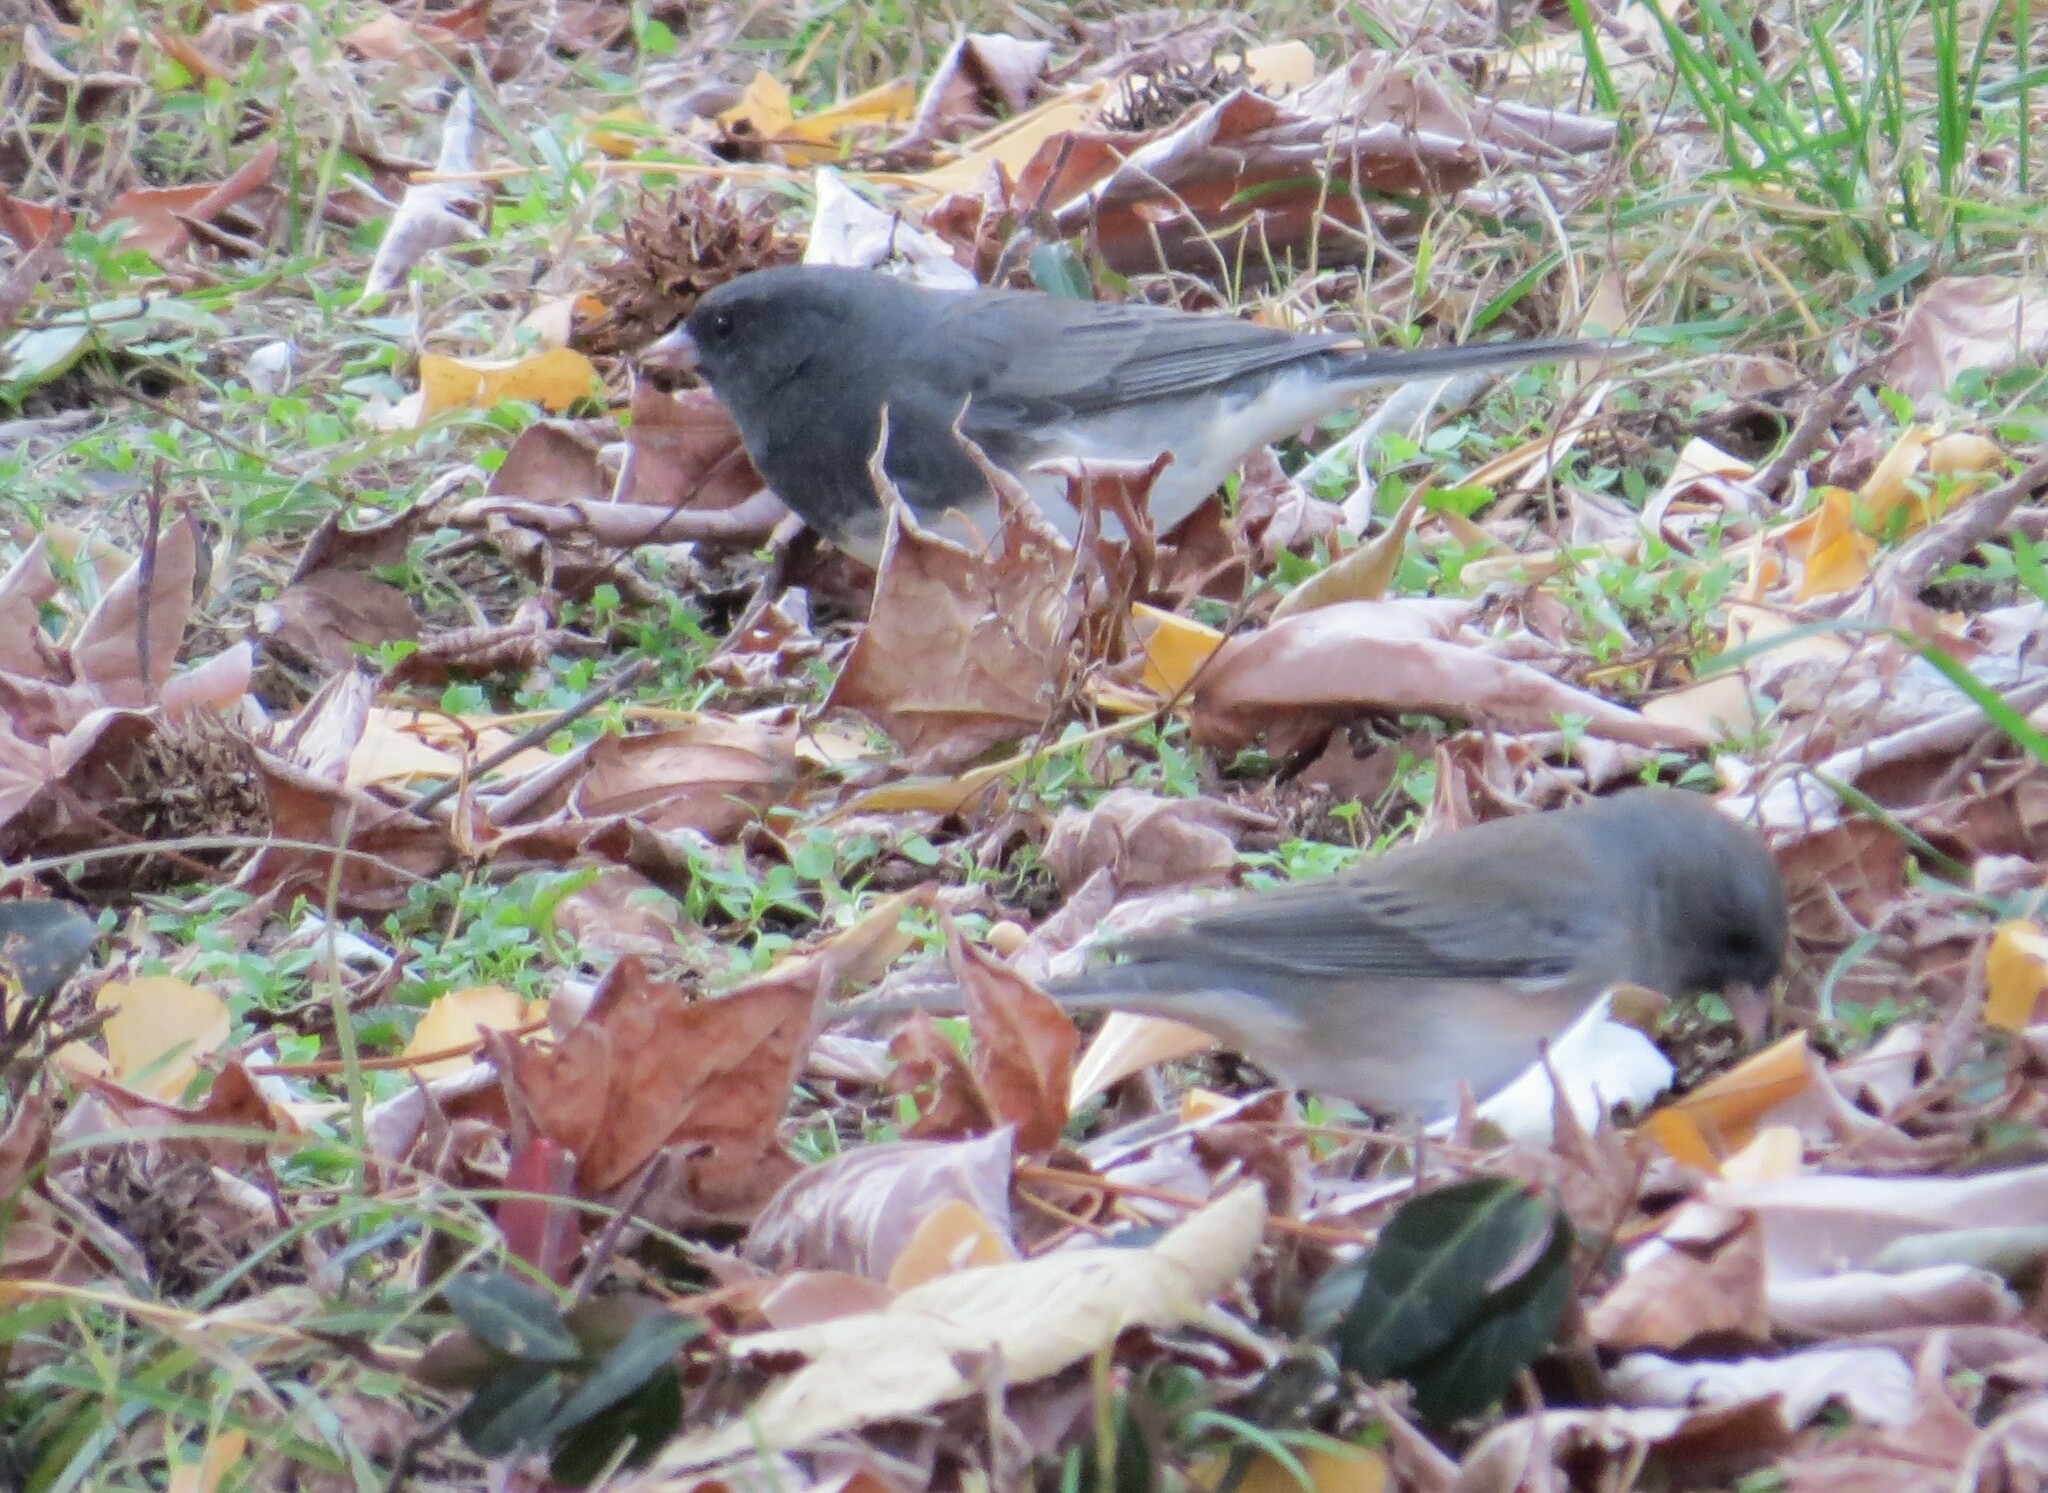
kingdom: Animalia
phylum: Chordata
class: Aves
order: Passeriformes
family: Passerellidae
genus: Junco
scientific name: Junco hyemalis
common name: Dark-eyed junco
